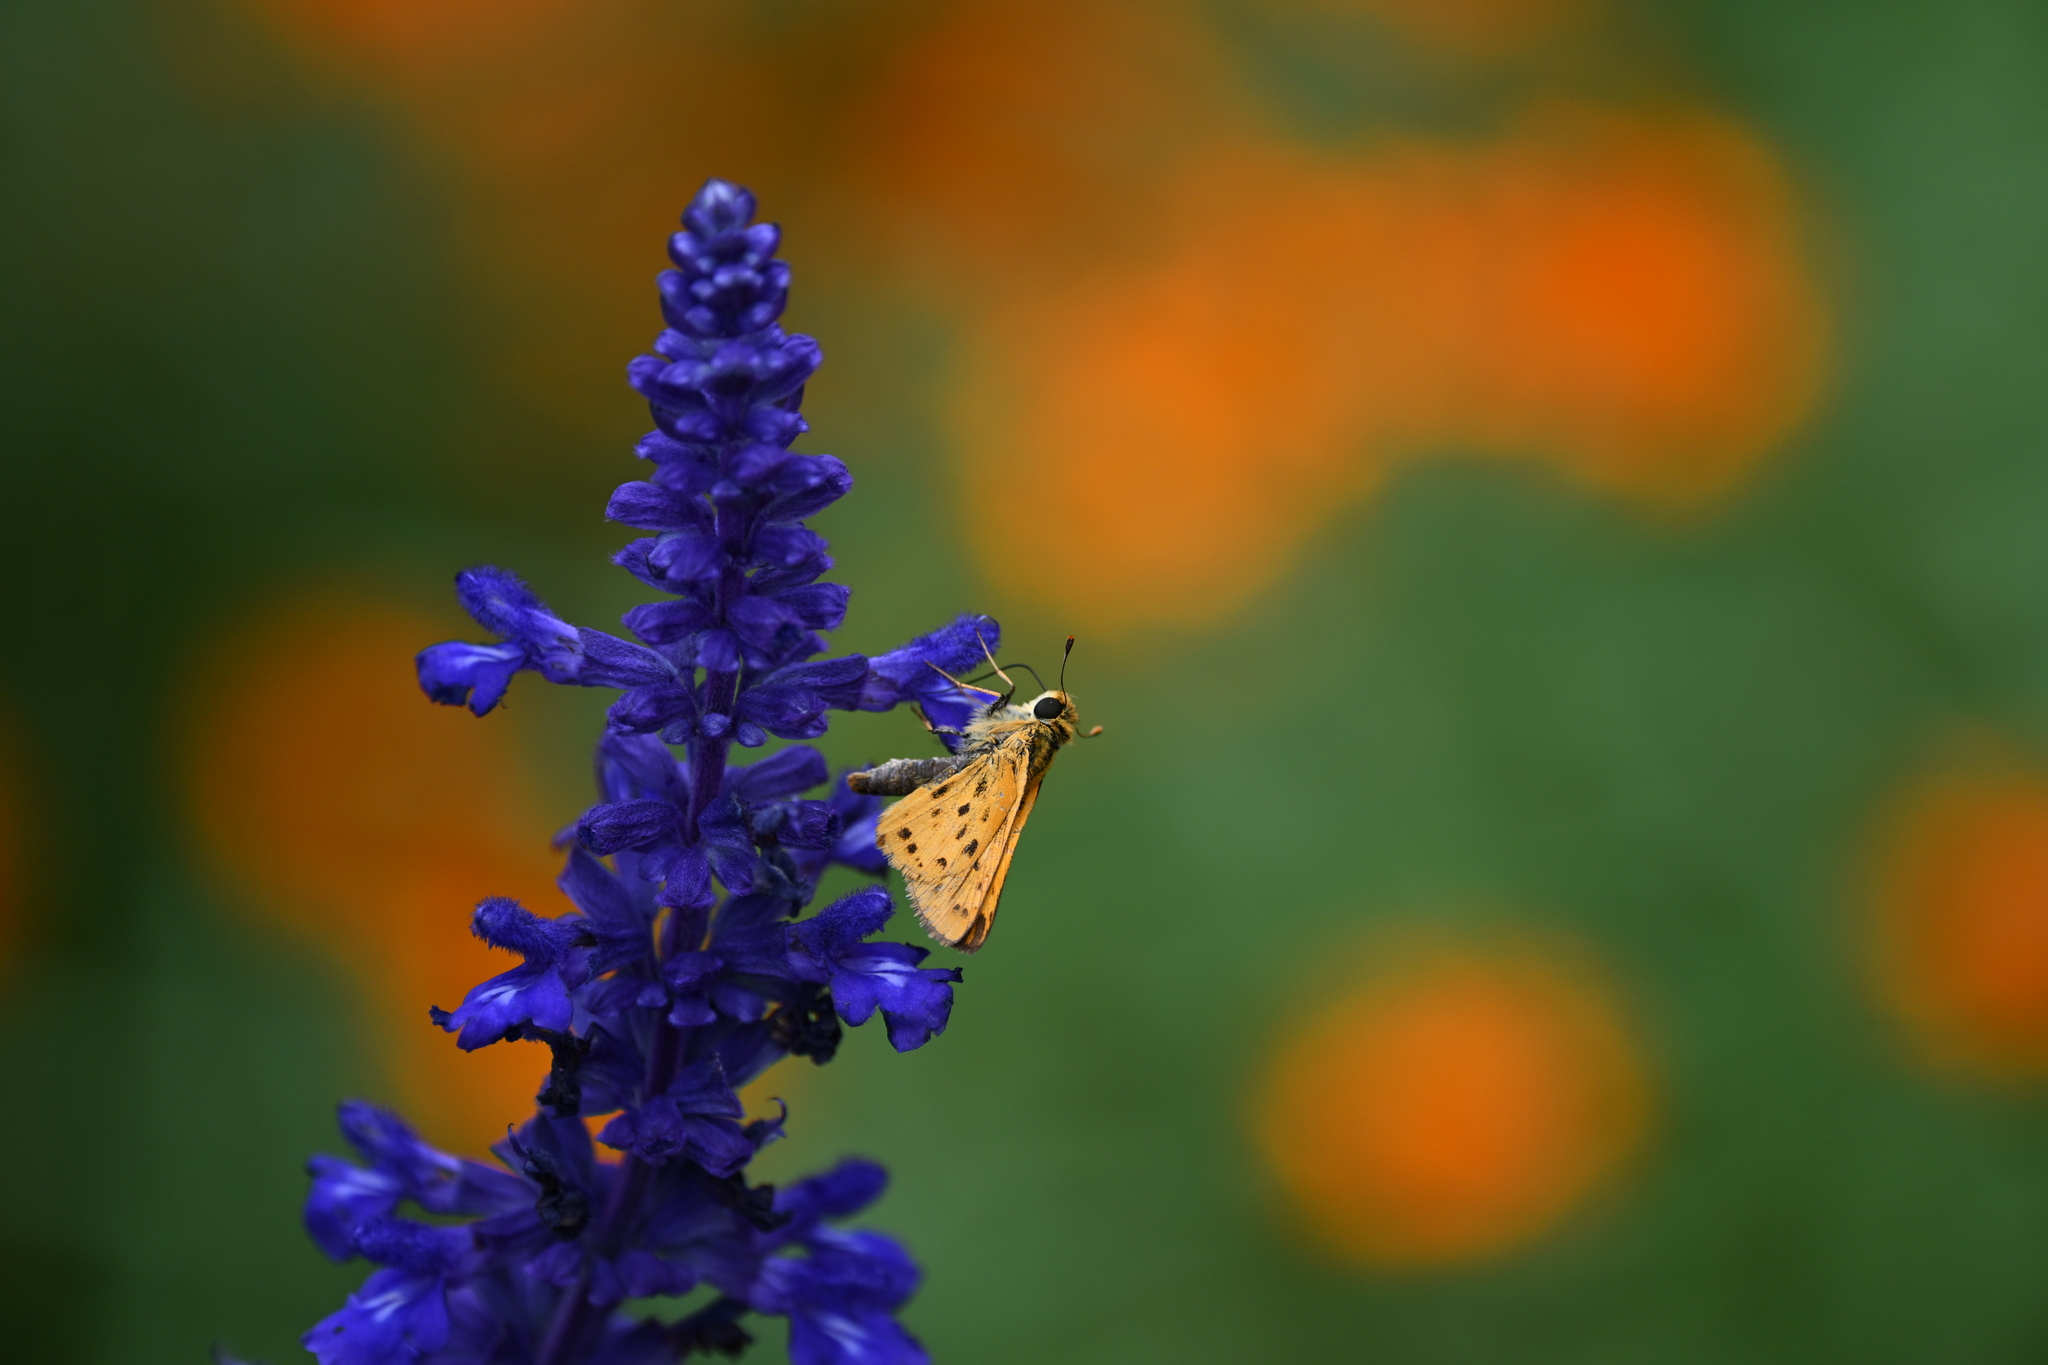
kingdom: Animalia
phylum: Arthropoda
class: Insecta
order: Lepidoptera
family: Hesperiidae
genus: Hylephila
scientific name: Hylephila phyleus
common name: Fiery skipper
